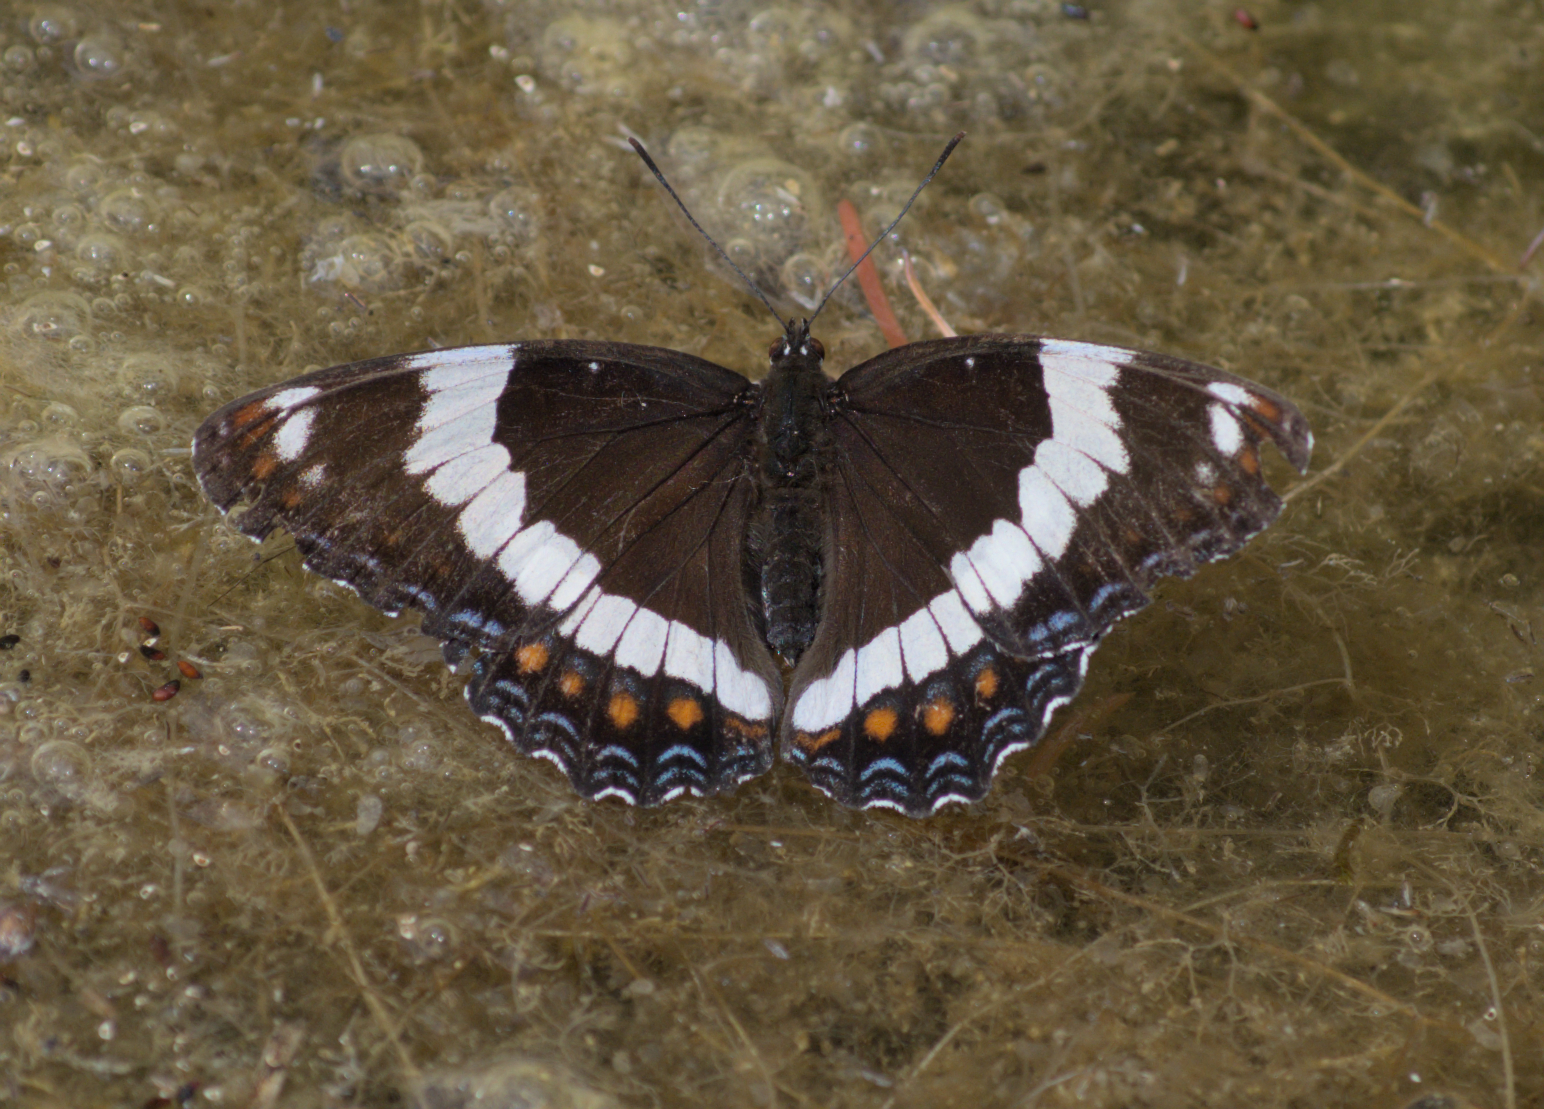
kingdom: Animalia
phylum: Arthropoda
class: Insecta
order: Lepidoptera
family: Nymphalidae
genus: Limenitis
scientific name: Limenitis arthemis
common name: Red-spotted admiral
